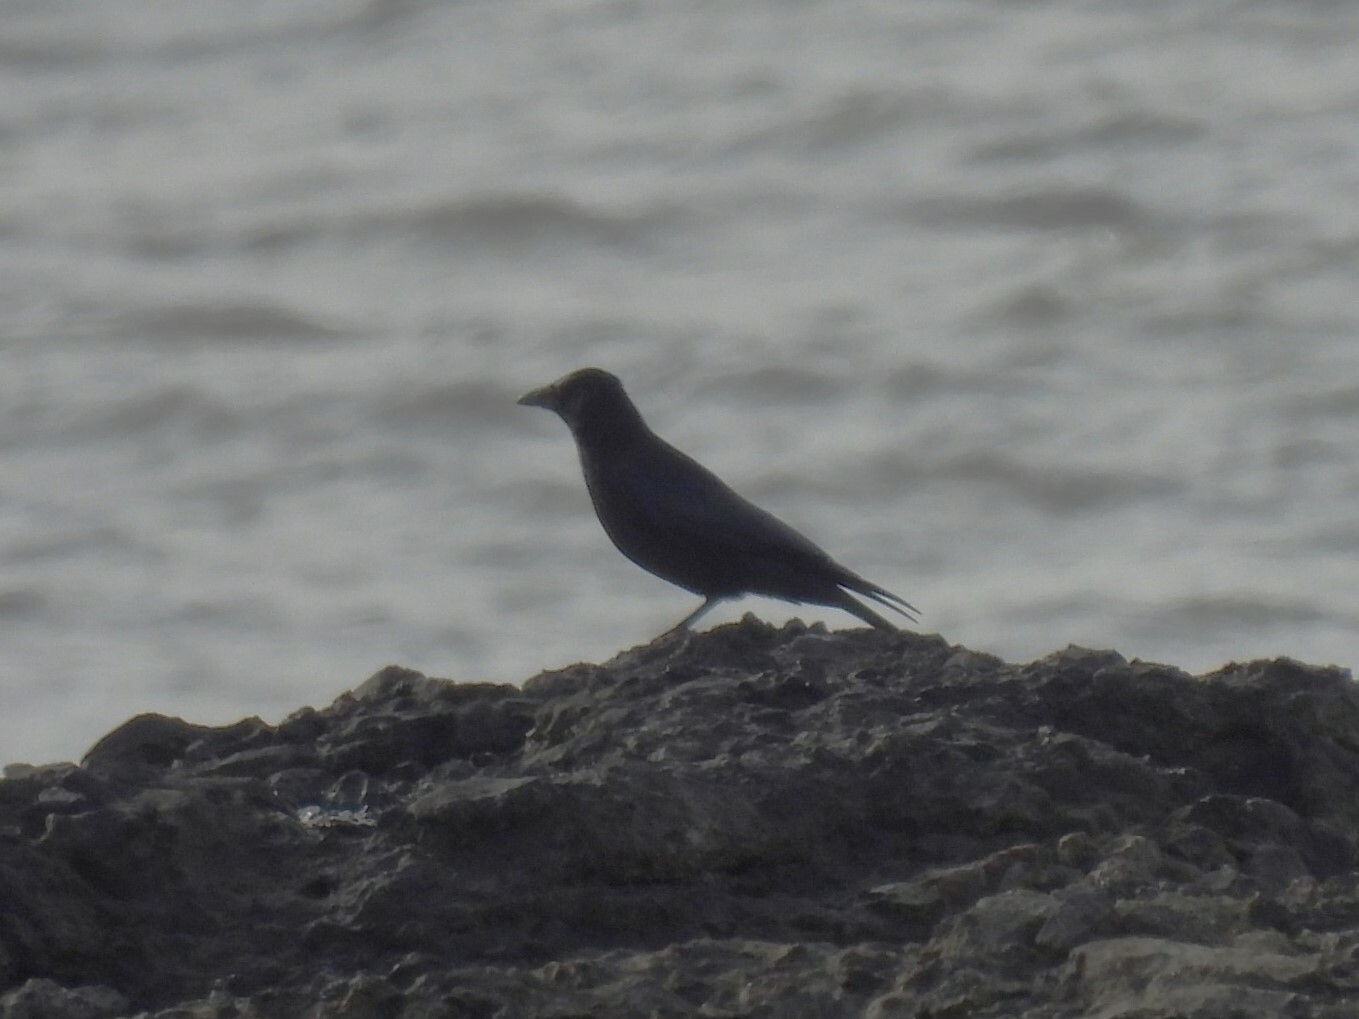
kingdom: Animalia
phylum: Chordata
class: Aves
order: Passeriformes
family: Corvidae
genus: Corvus
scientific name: Corvus corone
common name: Carrion crow
